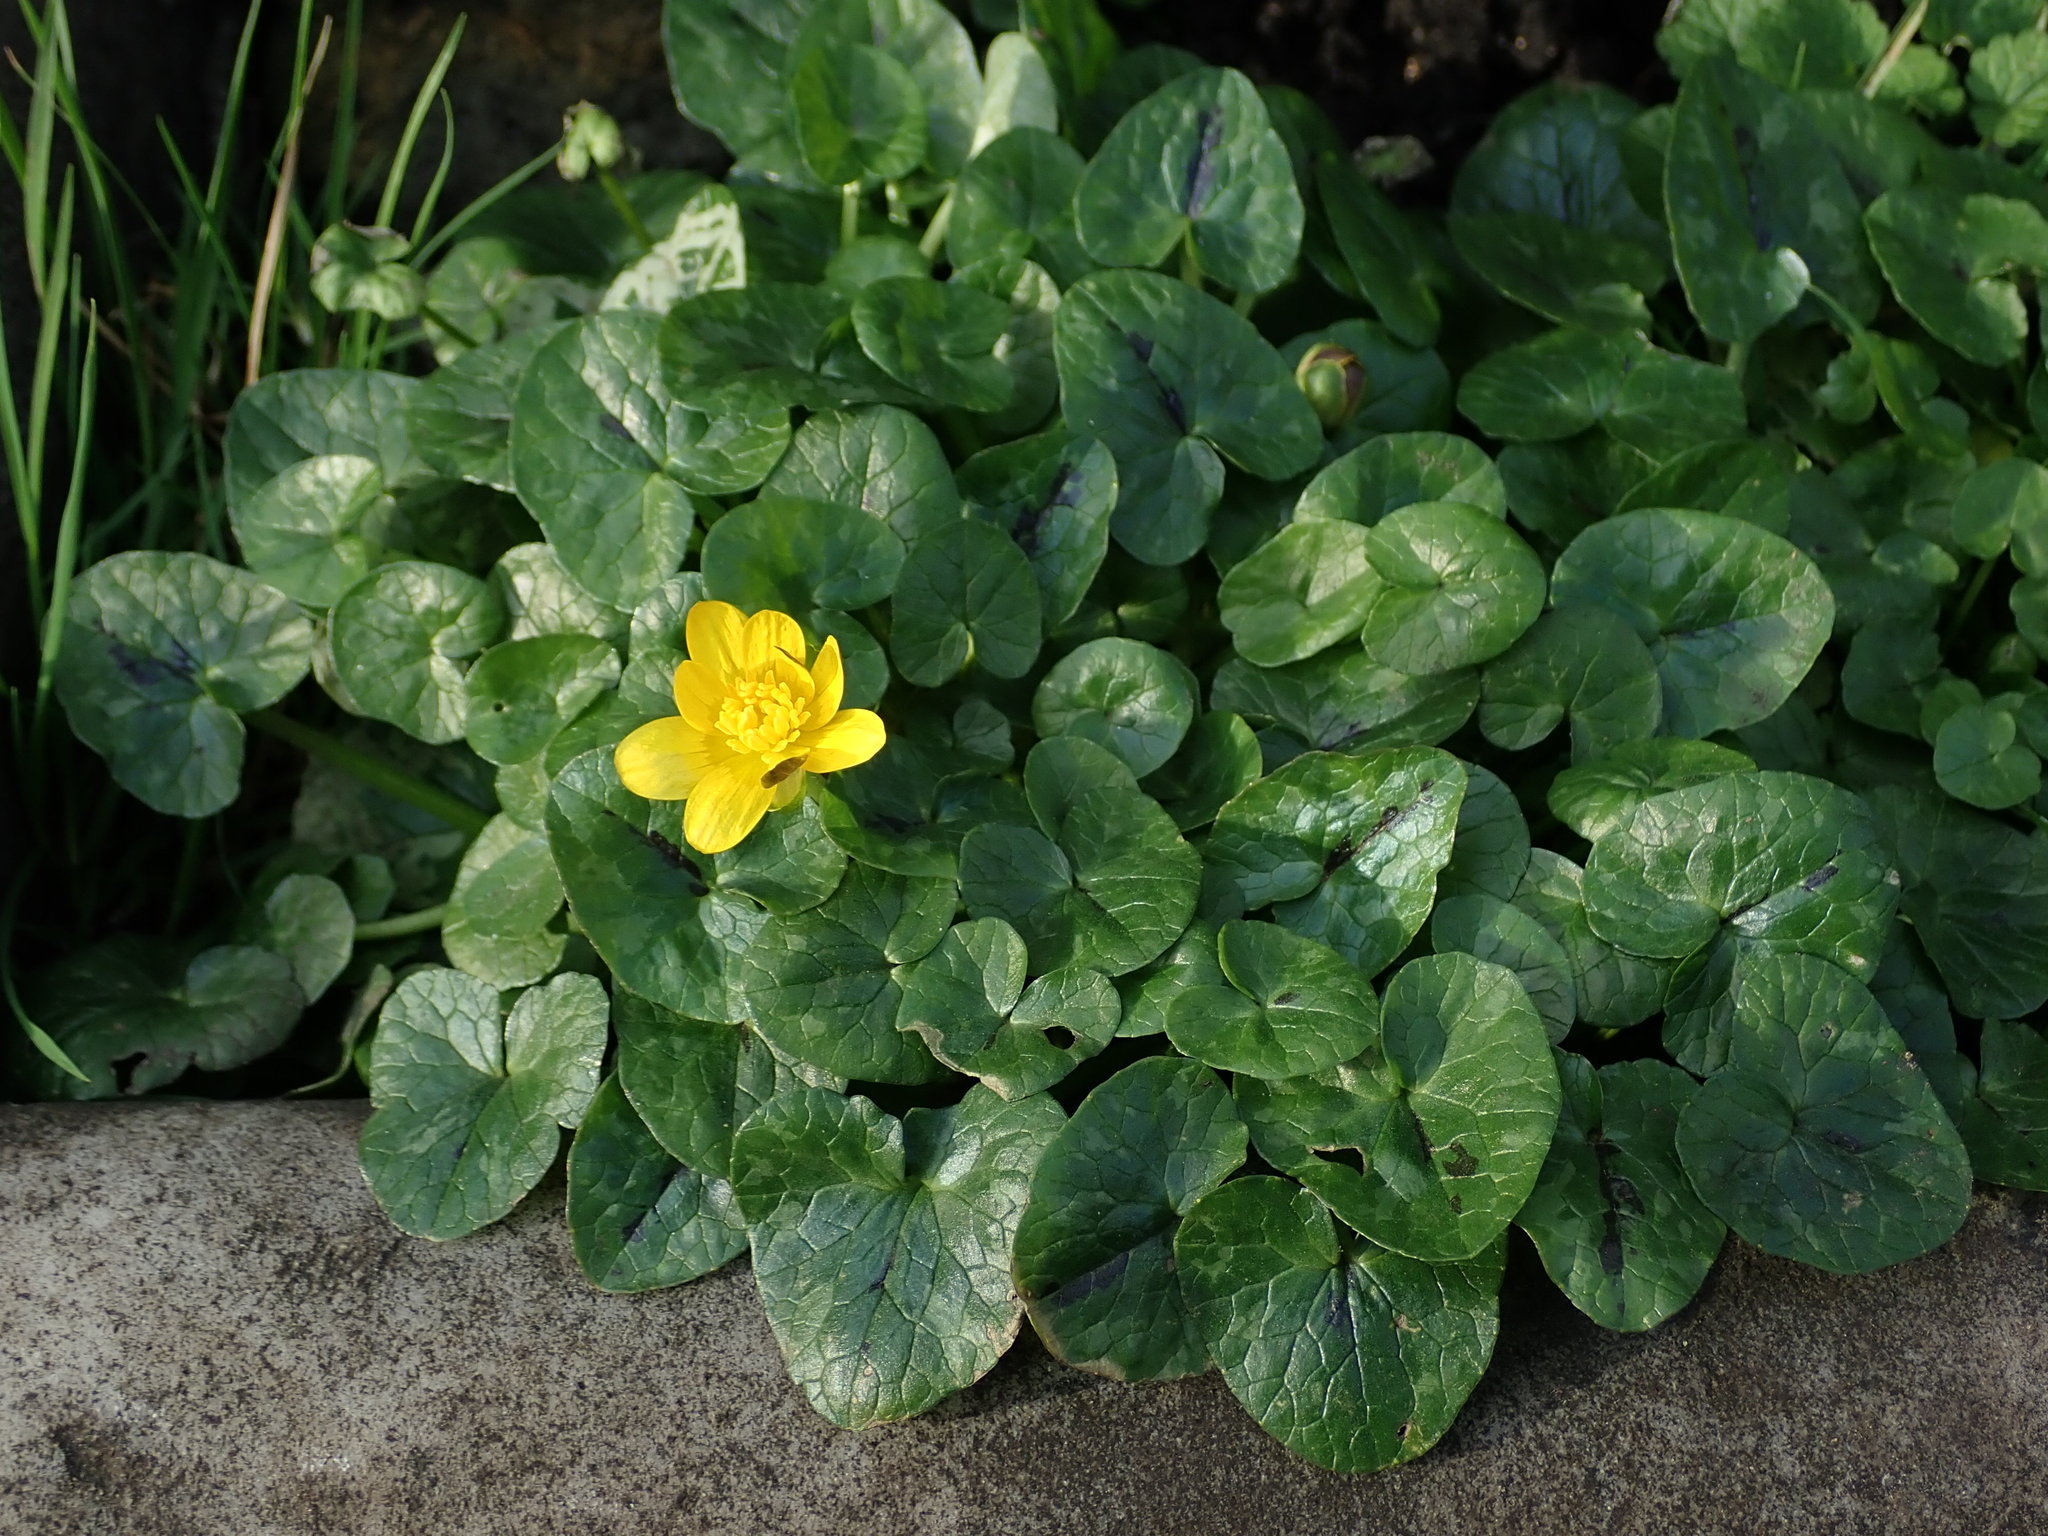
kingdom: Plantae
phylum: Tracheophyta
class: Magnoliopsida
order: Ranunculales
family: Ranunculaceae
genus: Ficaria
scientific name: Ficaria verna
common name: Lesser celandine
